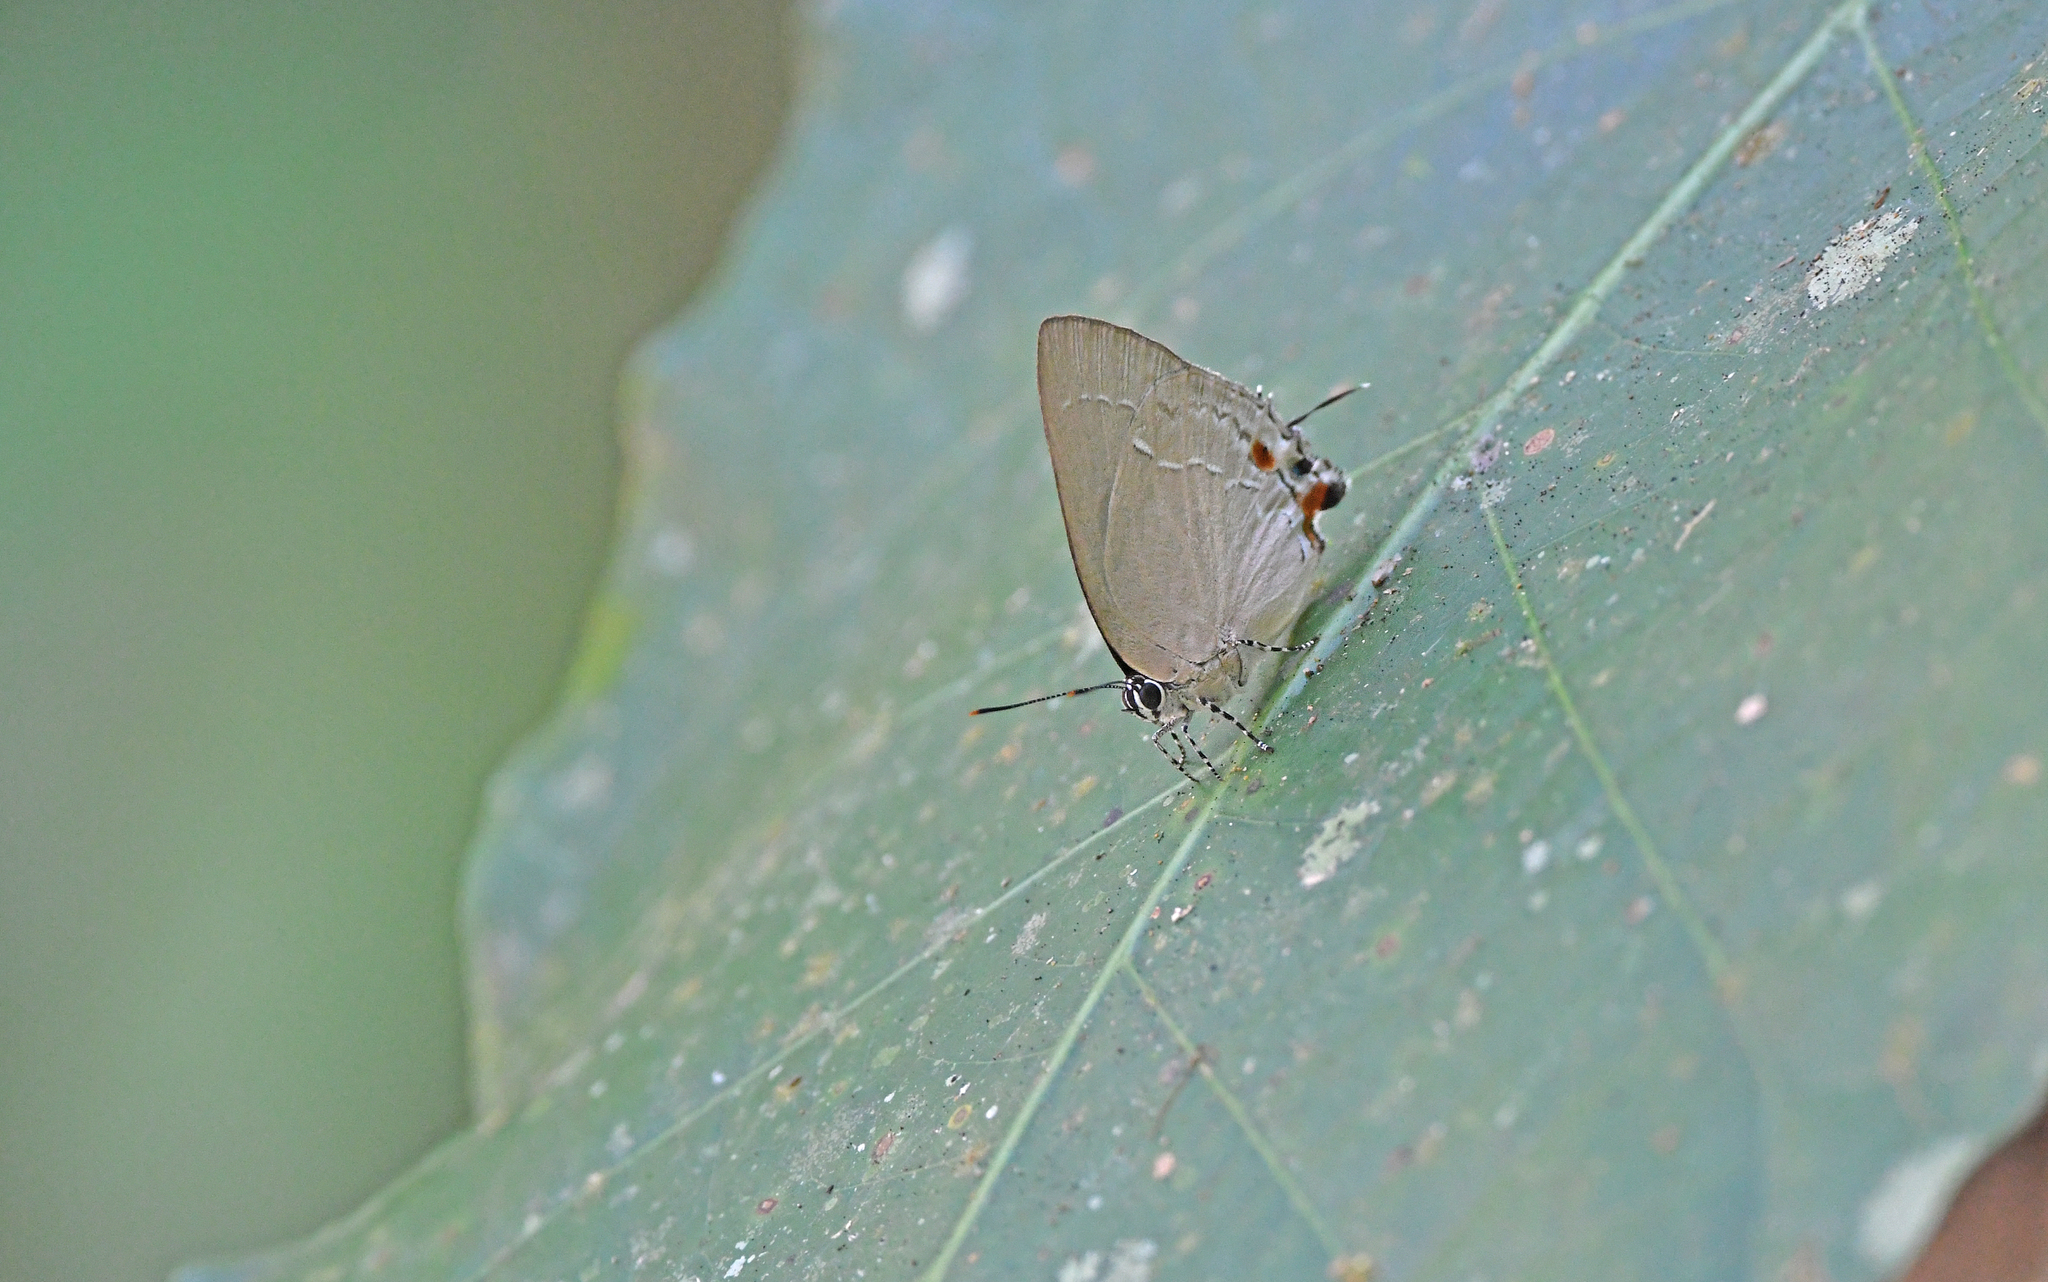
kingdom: Animalia
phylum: Arthropoda
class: Insecta
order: Lepidoptera
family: Lycaenidae
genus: Thecla
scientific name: Thecla cyllarissus
